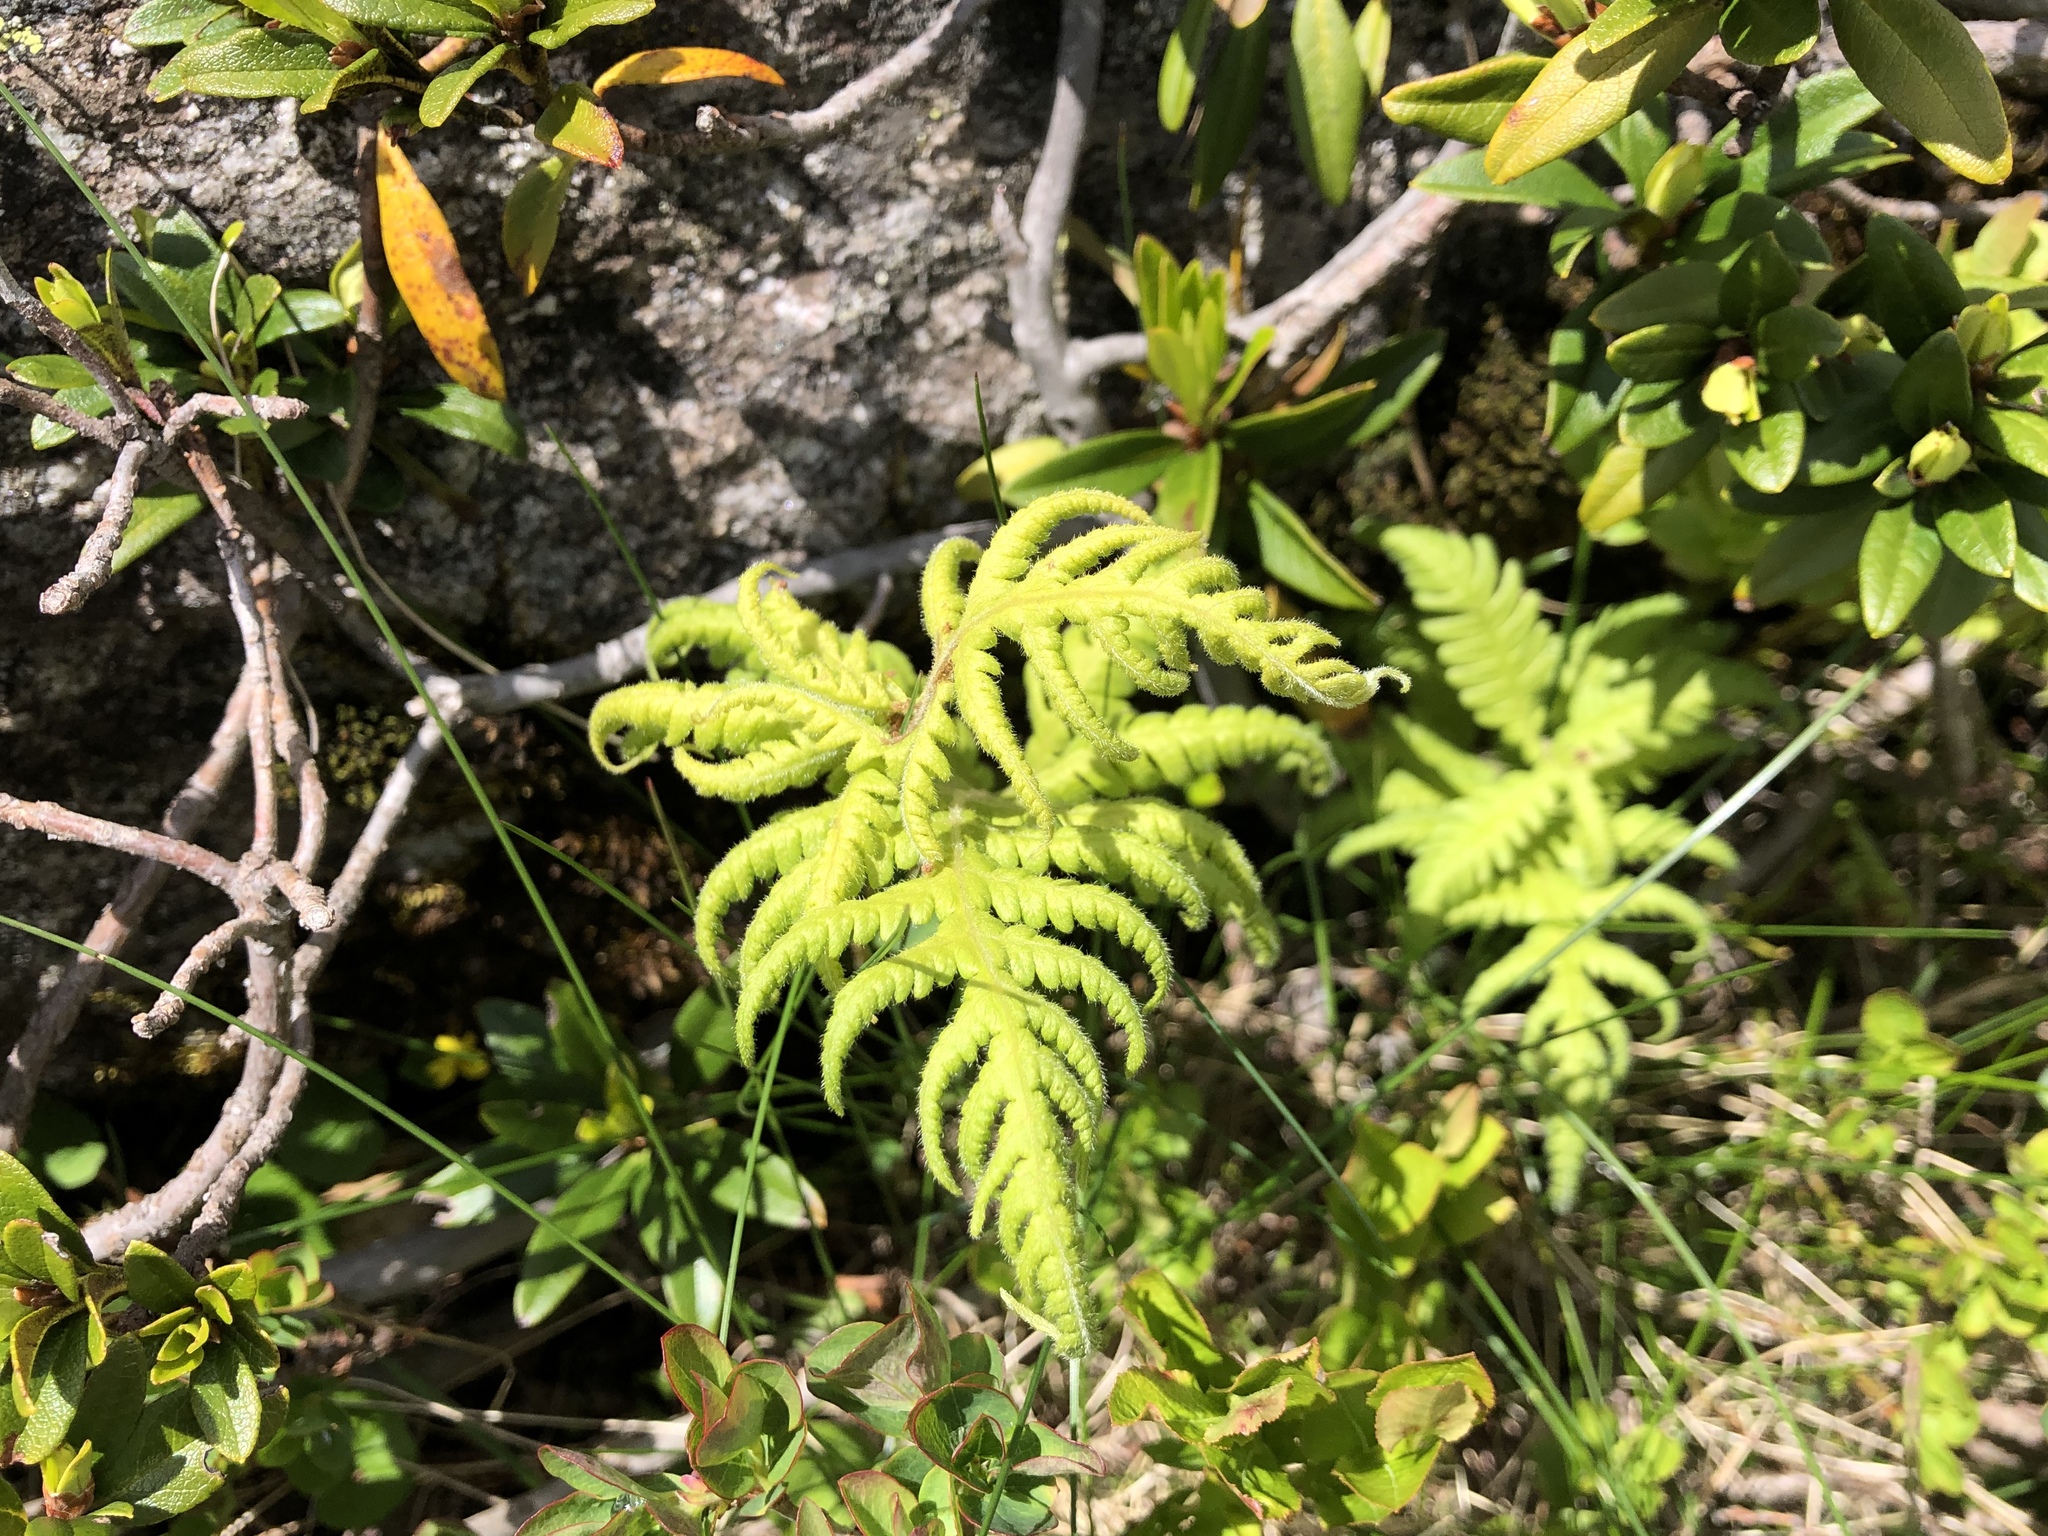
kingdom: Plantae
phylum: Tracheophyta
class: Polypodiopsida
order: Polypodiales
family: Thelypteridaceae
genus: Phegopteris
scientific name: Phegopteris connectilis
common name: Beech fern
